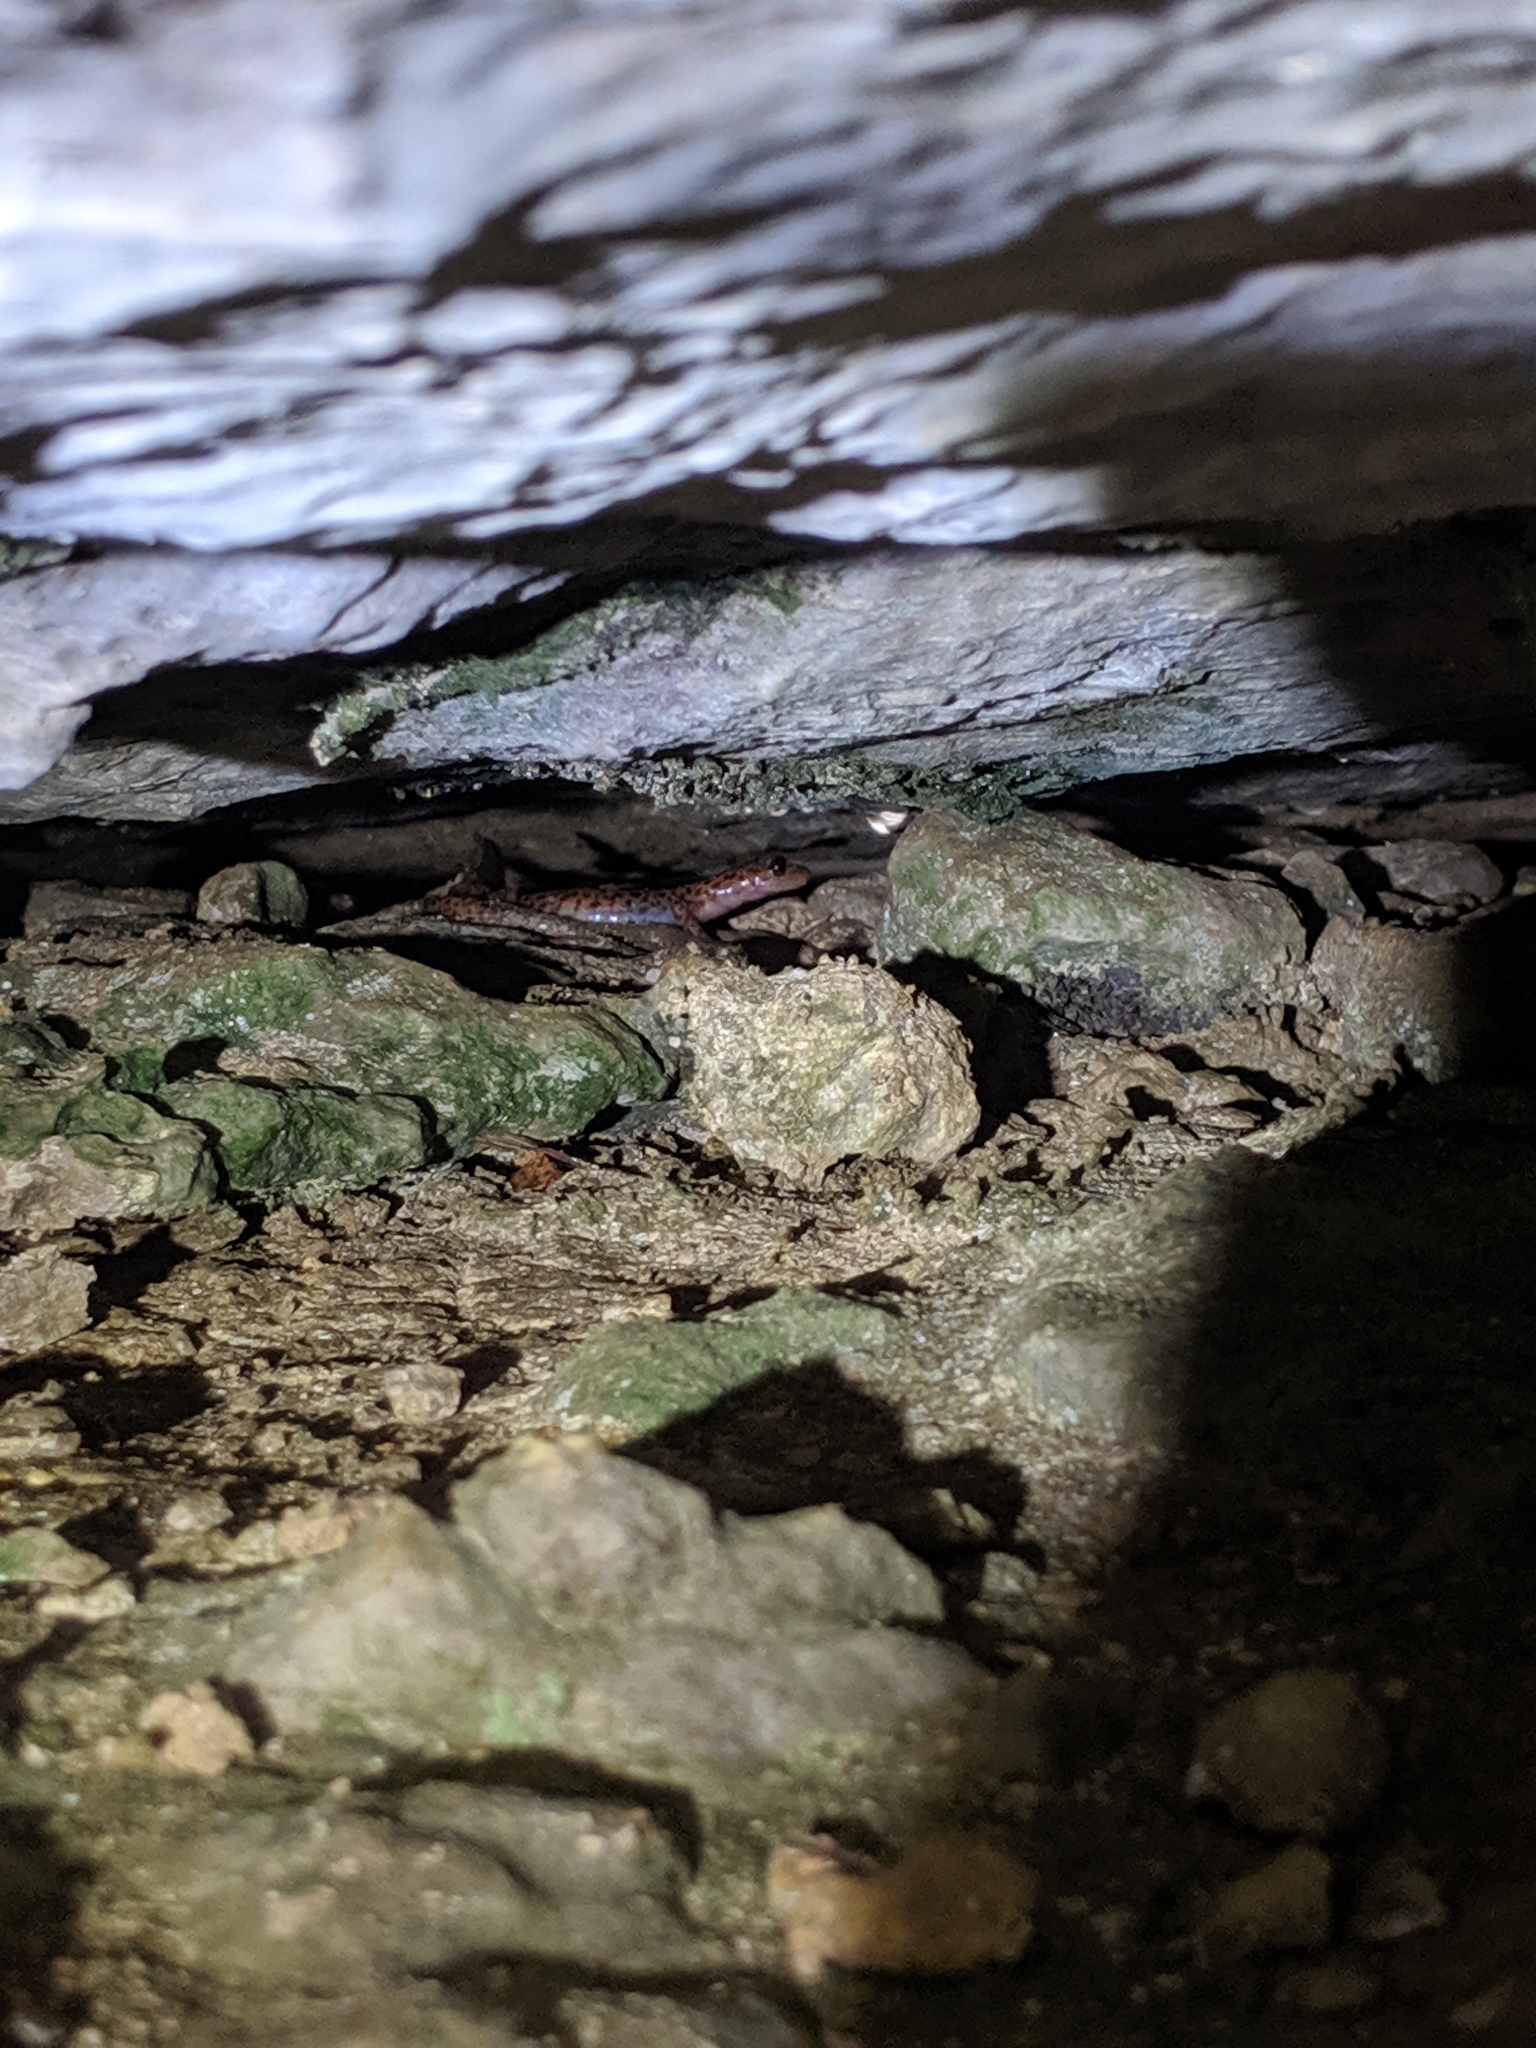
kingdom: Animalia
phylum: Chordata
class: Amphibia
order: Caudata
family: Plethodontidae
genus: Eurycea
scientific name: Eurycea lucifuga
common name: Cave salamander
